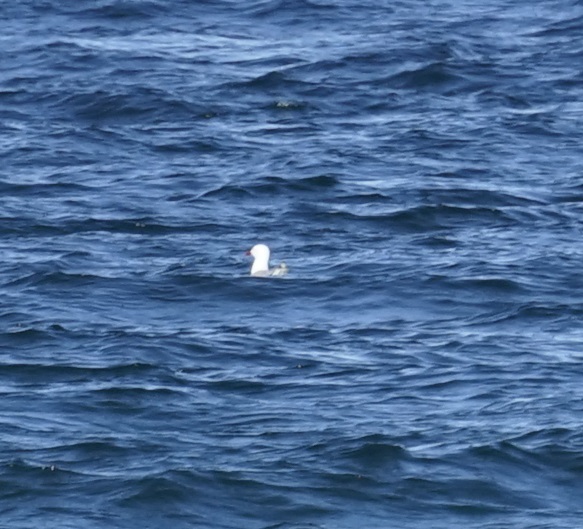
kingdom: Animalia
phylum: Chordata
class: Aves
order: Charadriiformes
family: Laridae
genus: Chroicocephalus
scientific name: Chroicocephalus novaehollandiae
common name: Silver gull
